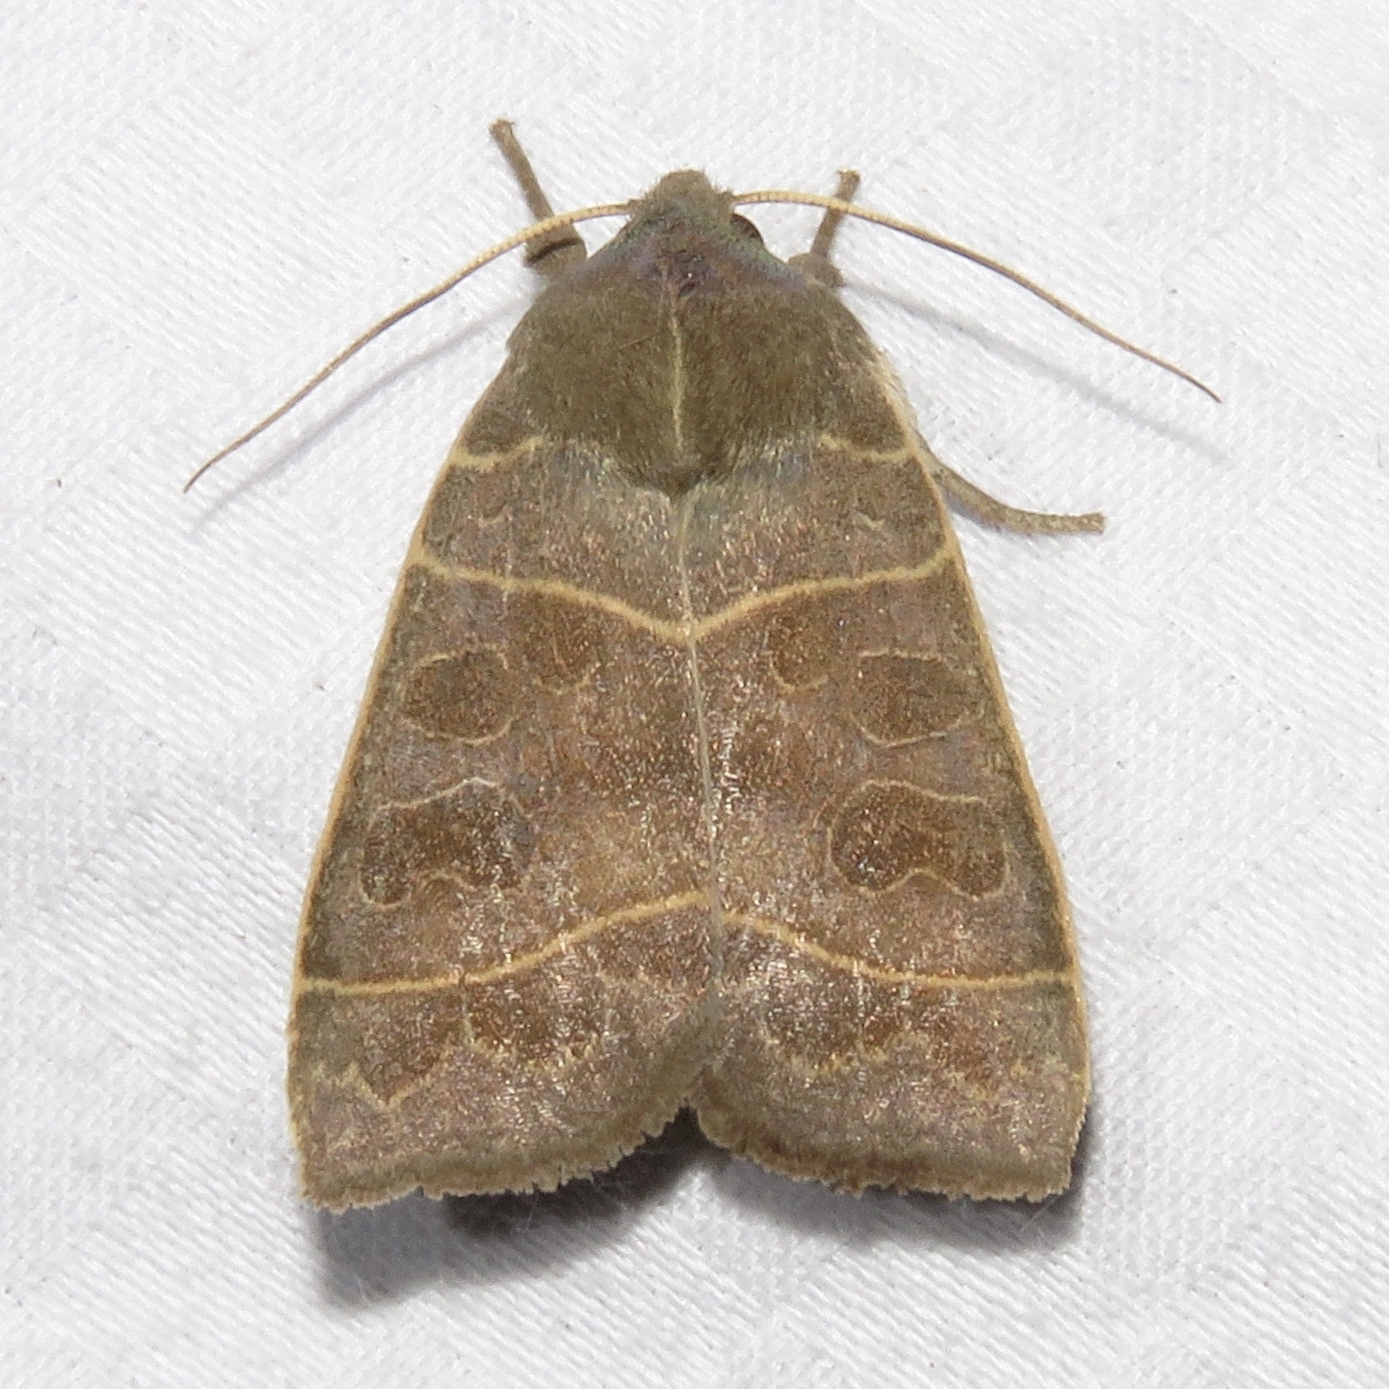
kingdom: Animalia
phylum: Arthropoda
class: Insecta
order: Lepidoptera
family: Noctuidae
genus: Ipimorpha
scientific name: Ipimorpha pleonectusa
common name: Even-lined sallow
